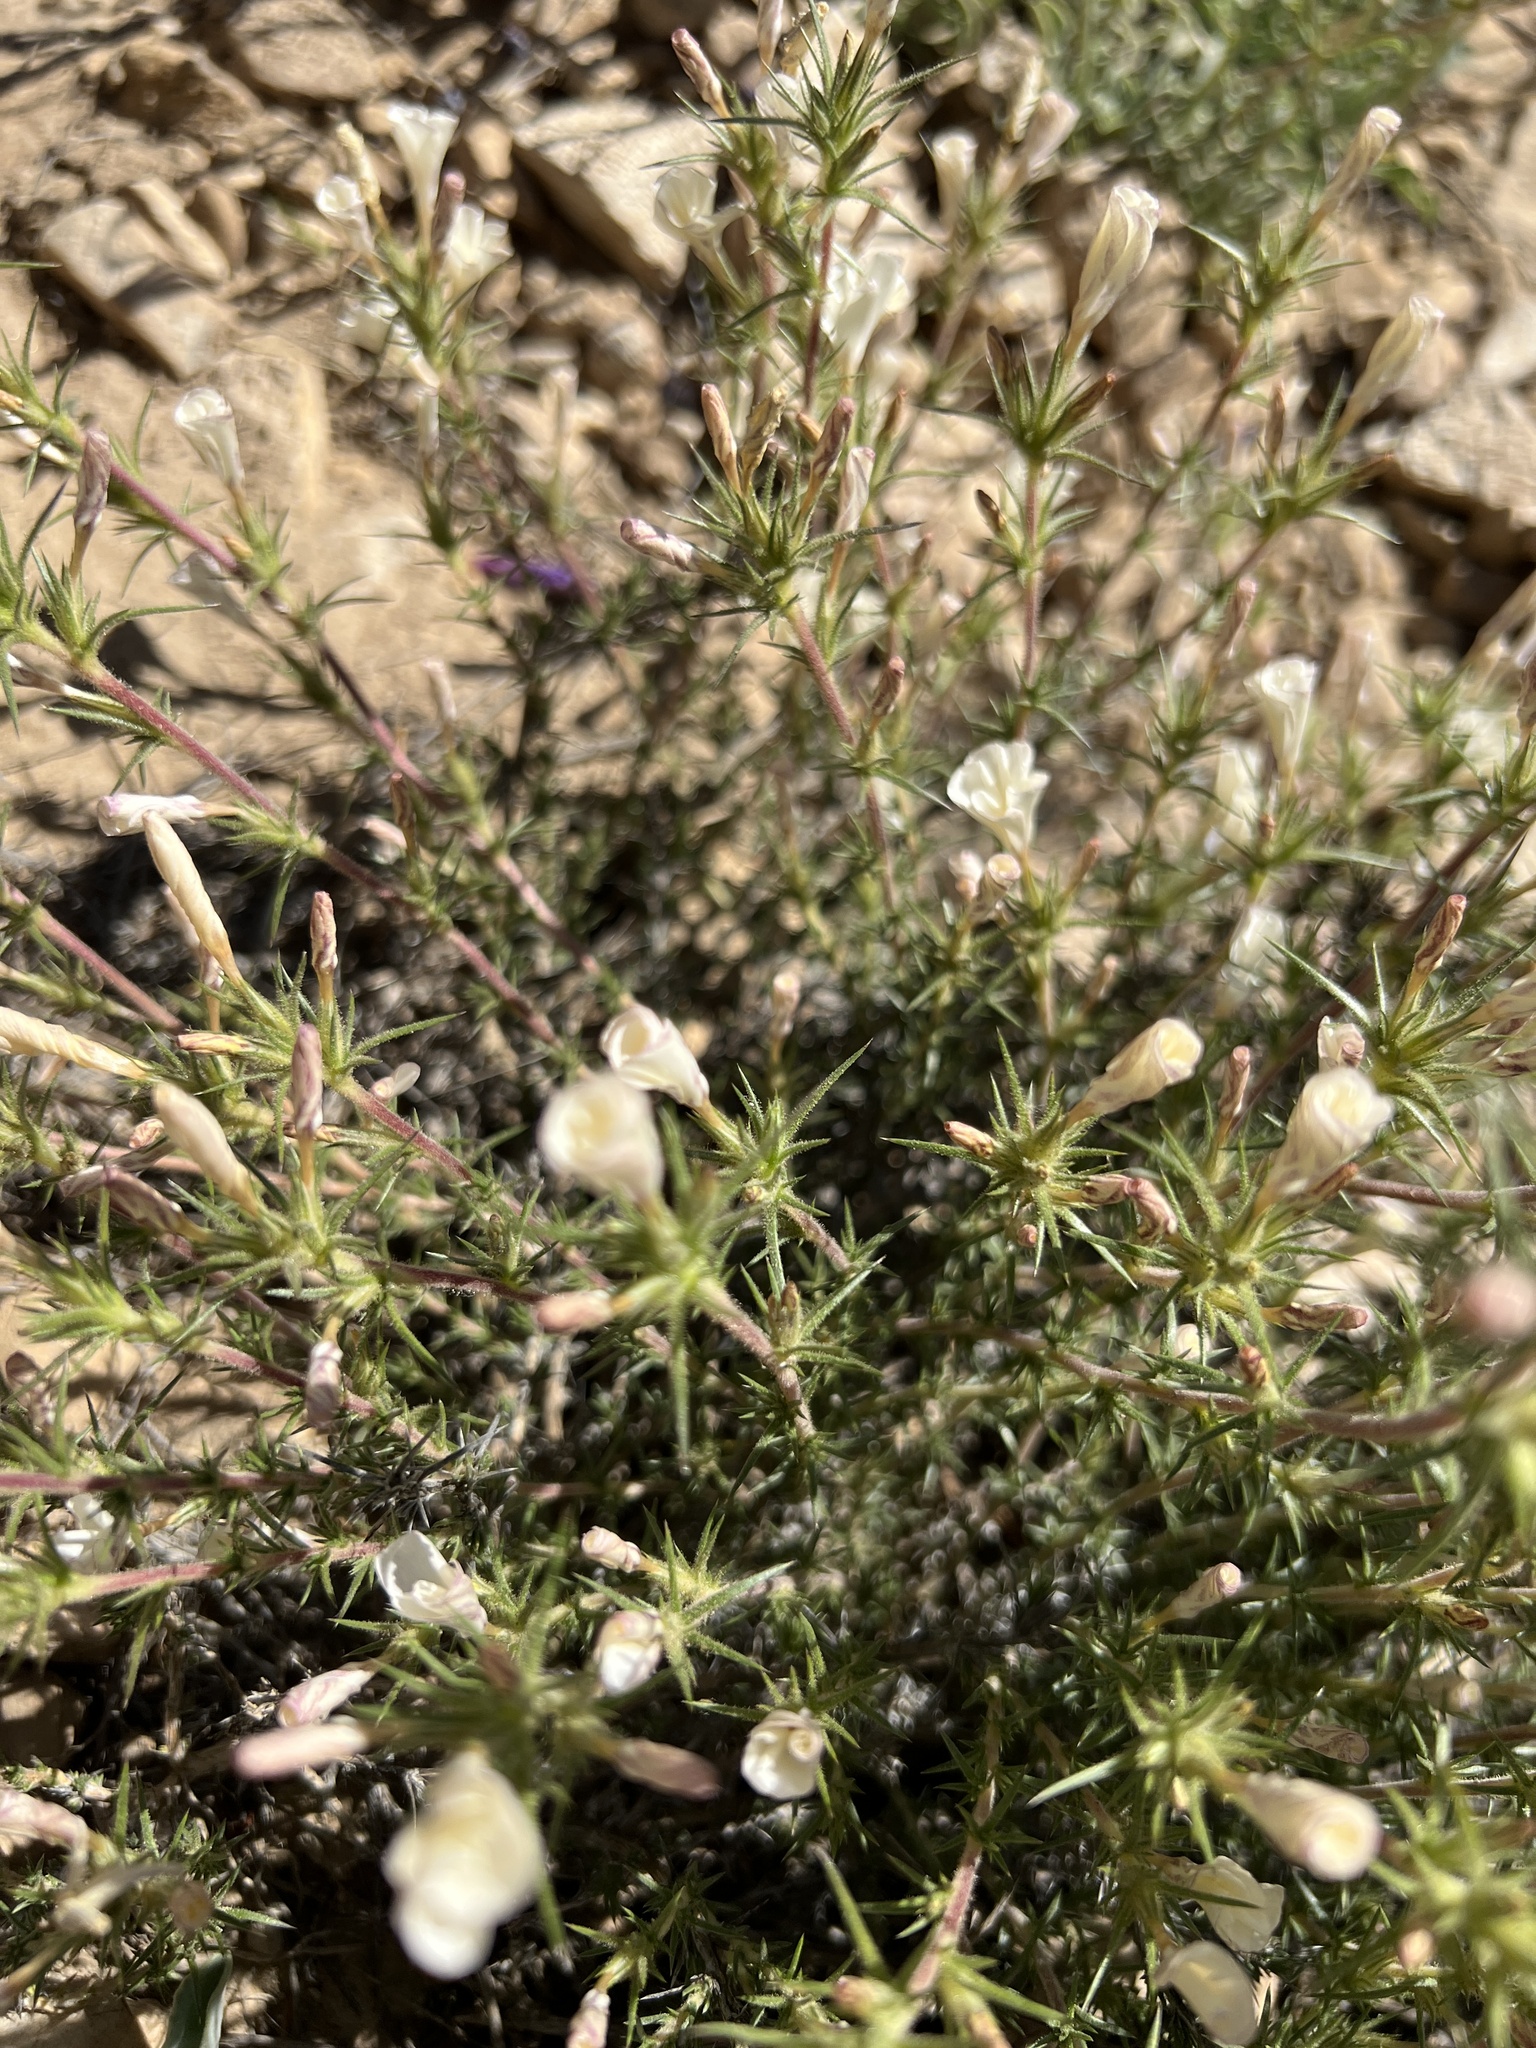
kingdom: Plantae
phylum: Tracheophyta
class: Magnoliopsida
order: Ericales
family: Polemoniaceae
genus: Linanthus
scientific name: Linanthus pungens
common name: Granite prickly phlox
